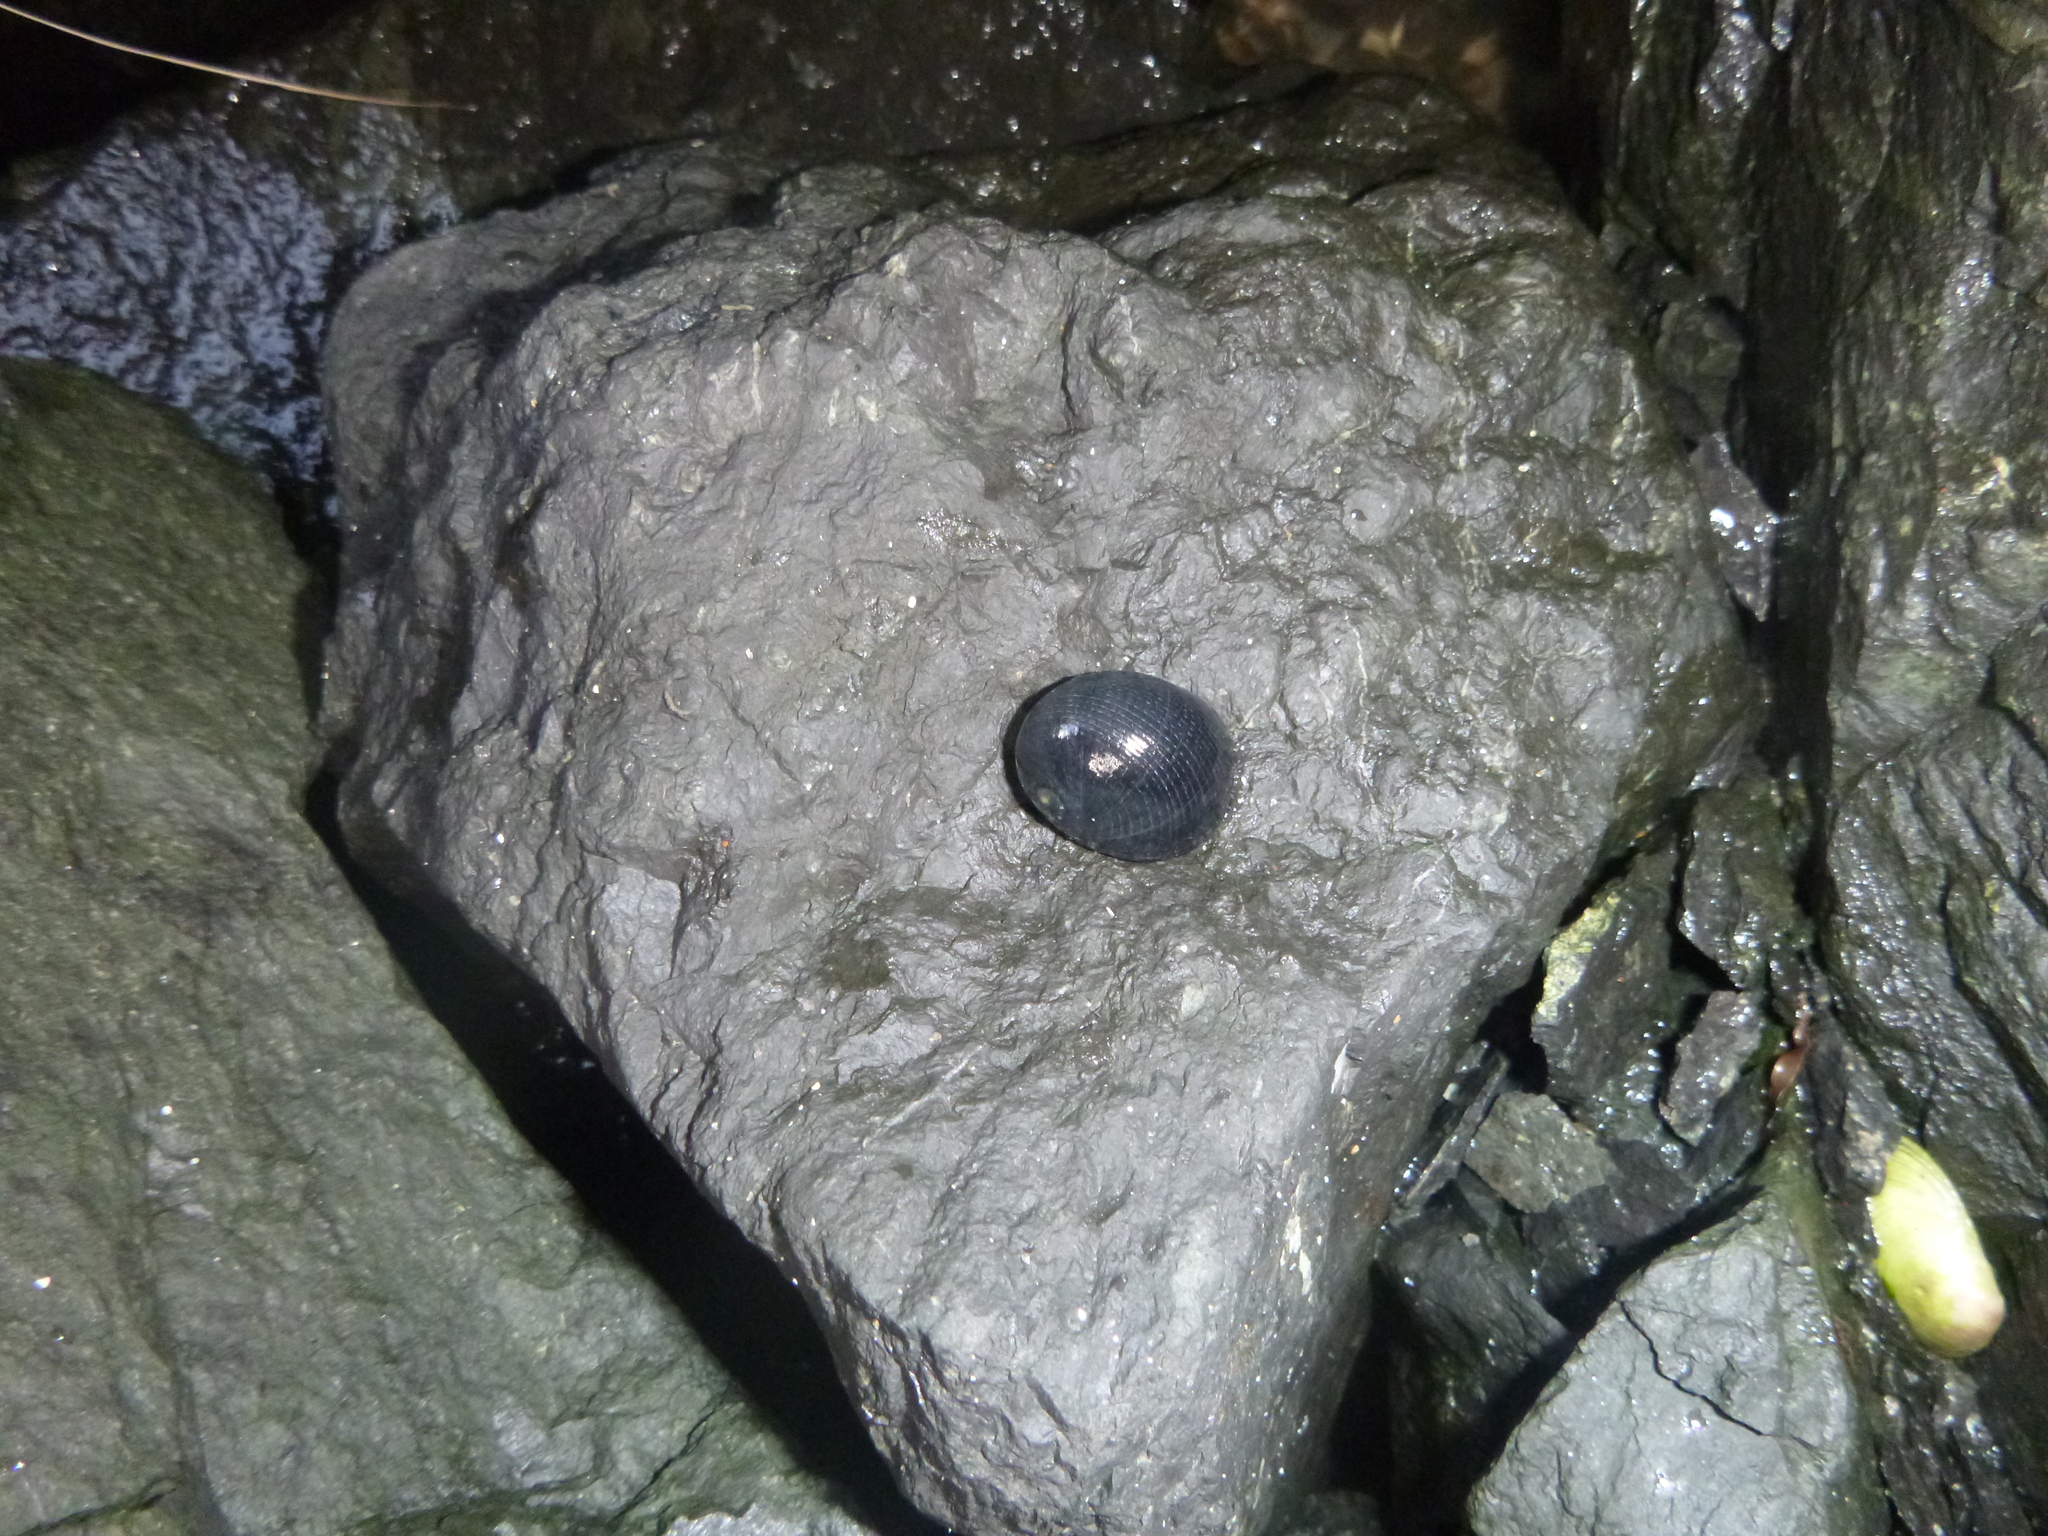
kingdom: Animalia
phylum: Mollusca
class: Gastropoda
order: Cycloneritida
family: Neritidae
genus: Nerita
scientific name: Nerita melanotragus
